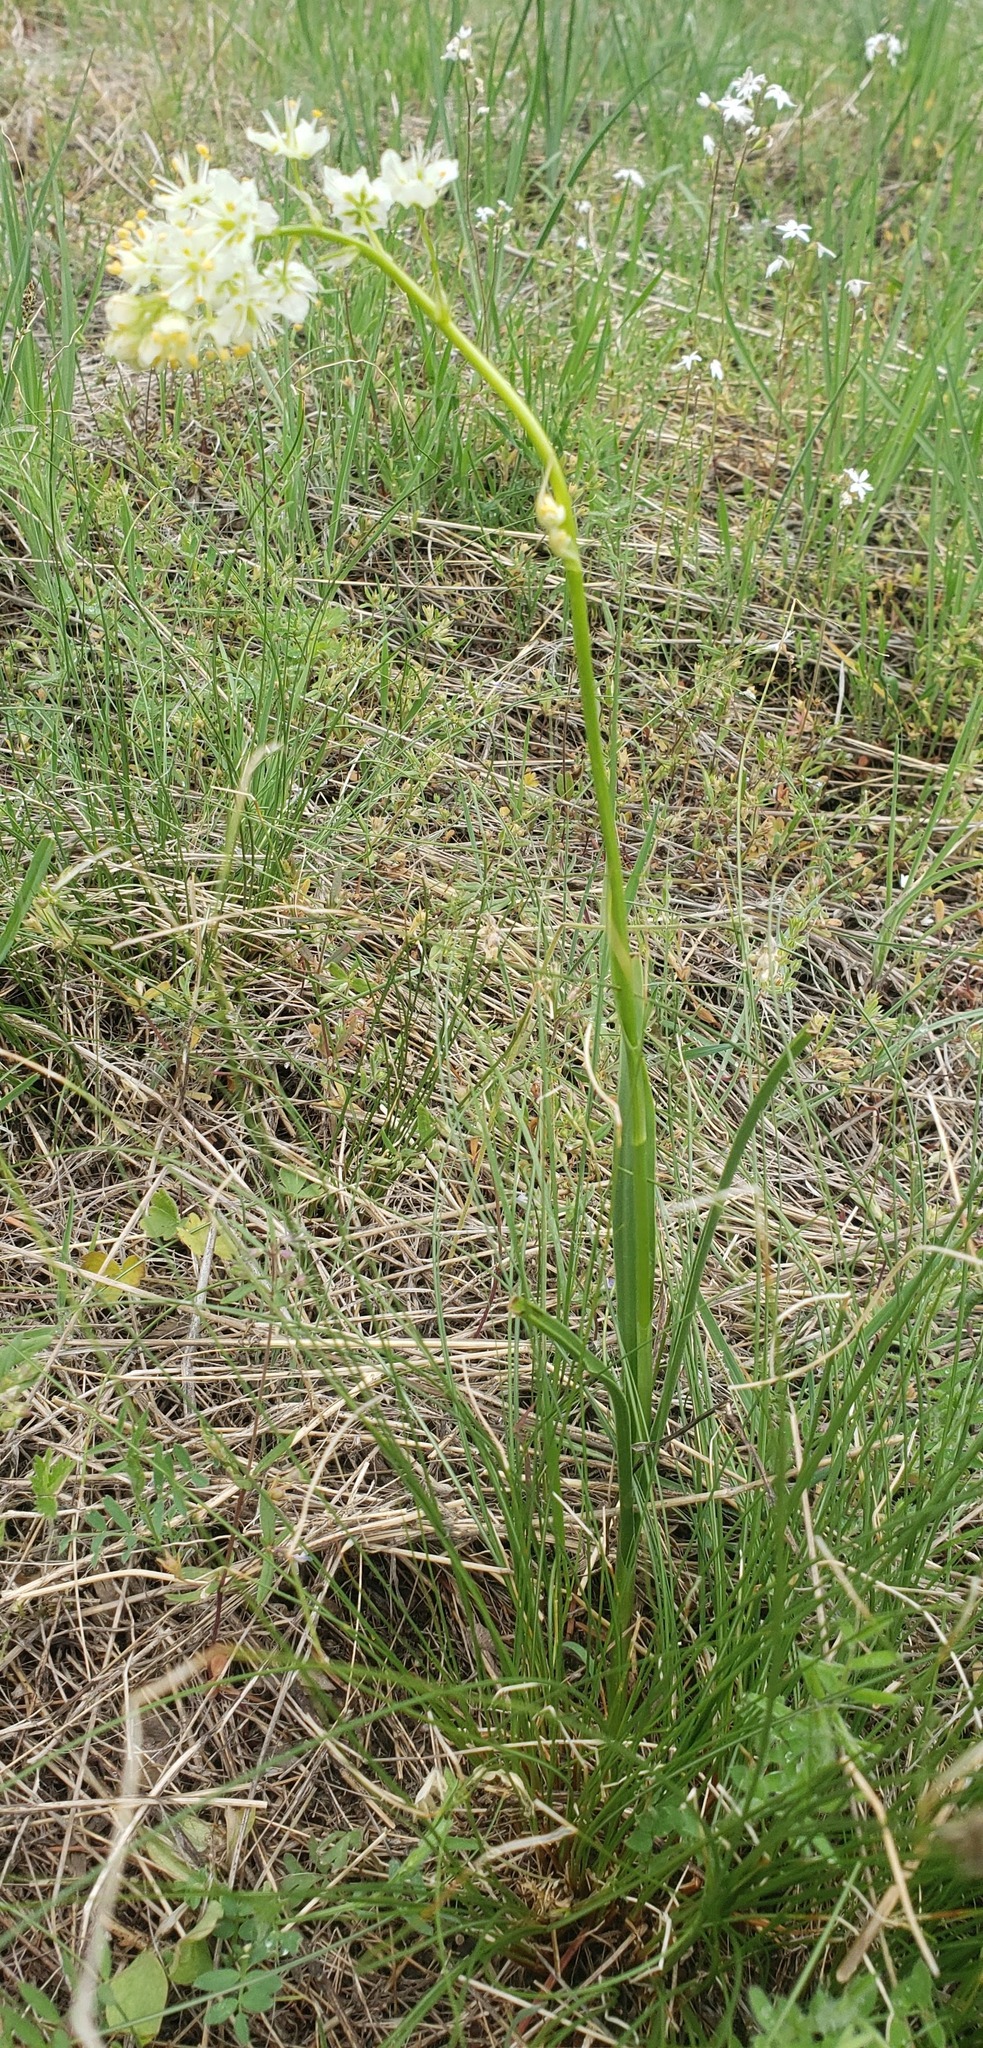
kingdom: Plantae
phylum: Tracheophyta
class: Liliopsida
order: Liliales
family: Melanthiaceae
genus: Toxicoscordion
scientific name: Toxicoscordion venenosum
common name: Meadow death camas
